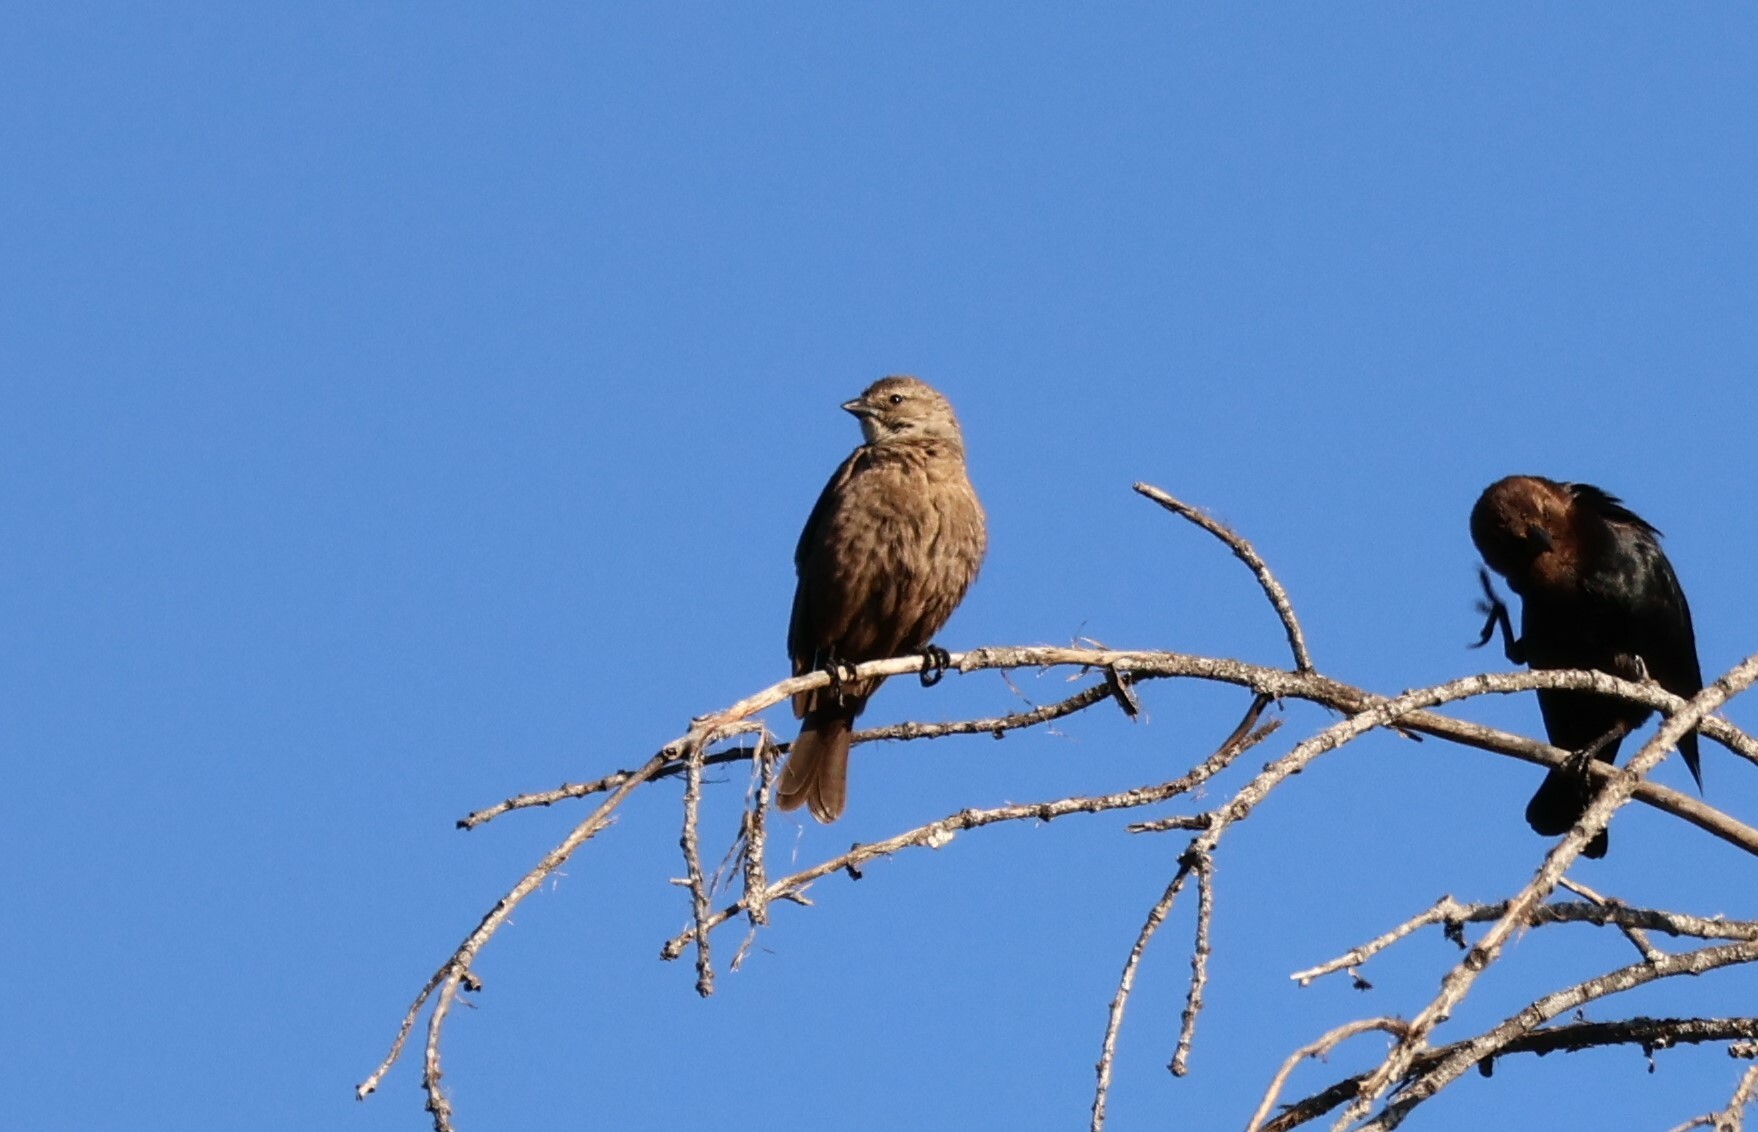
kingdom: Animalia
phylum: Chordata
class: Aves
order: Passeriformes
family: Icteridae
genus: Molothrus
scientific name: Molothrus ater
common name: Brown-headed cowbird
